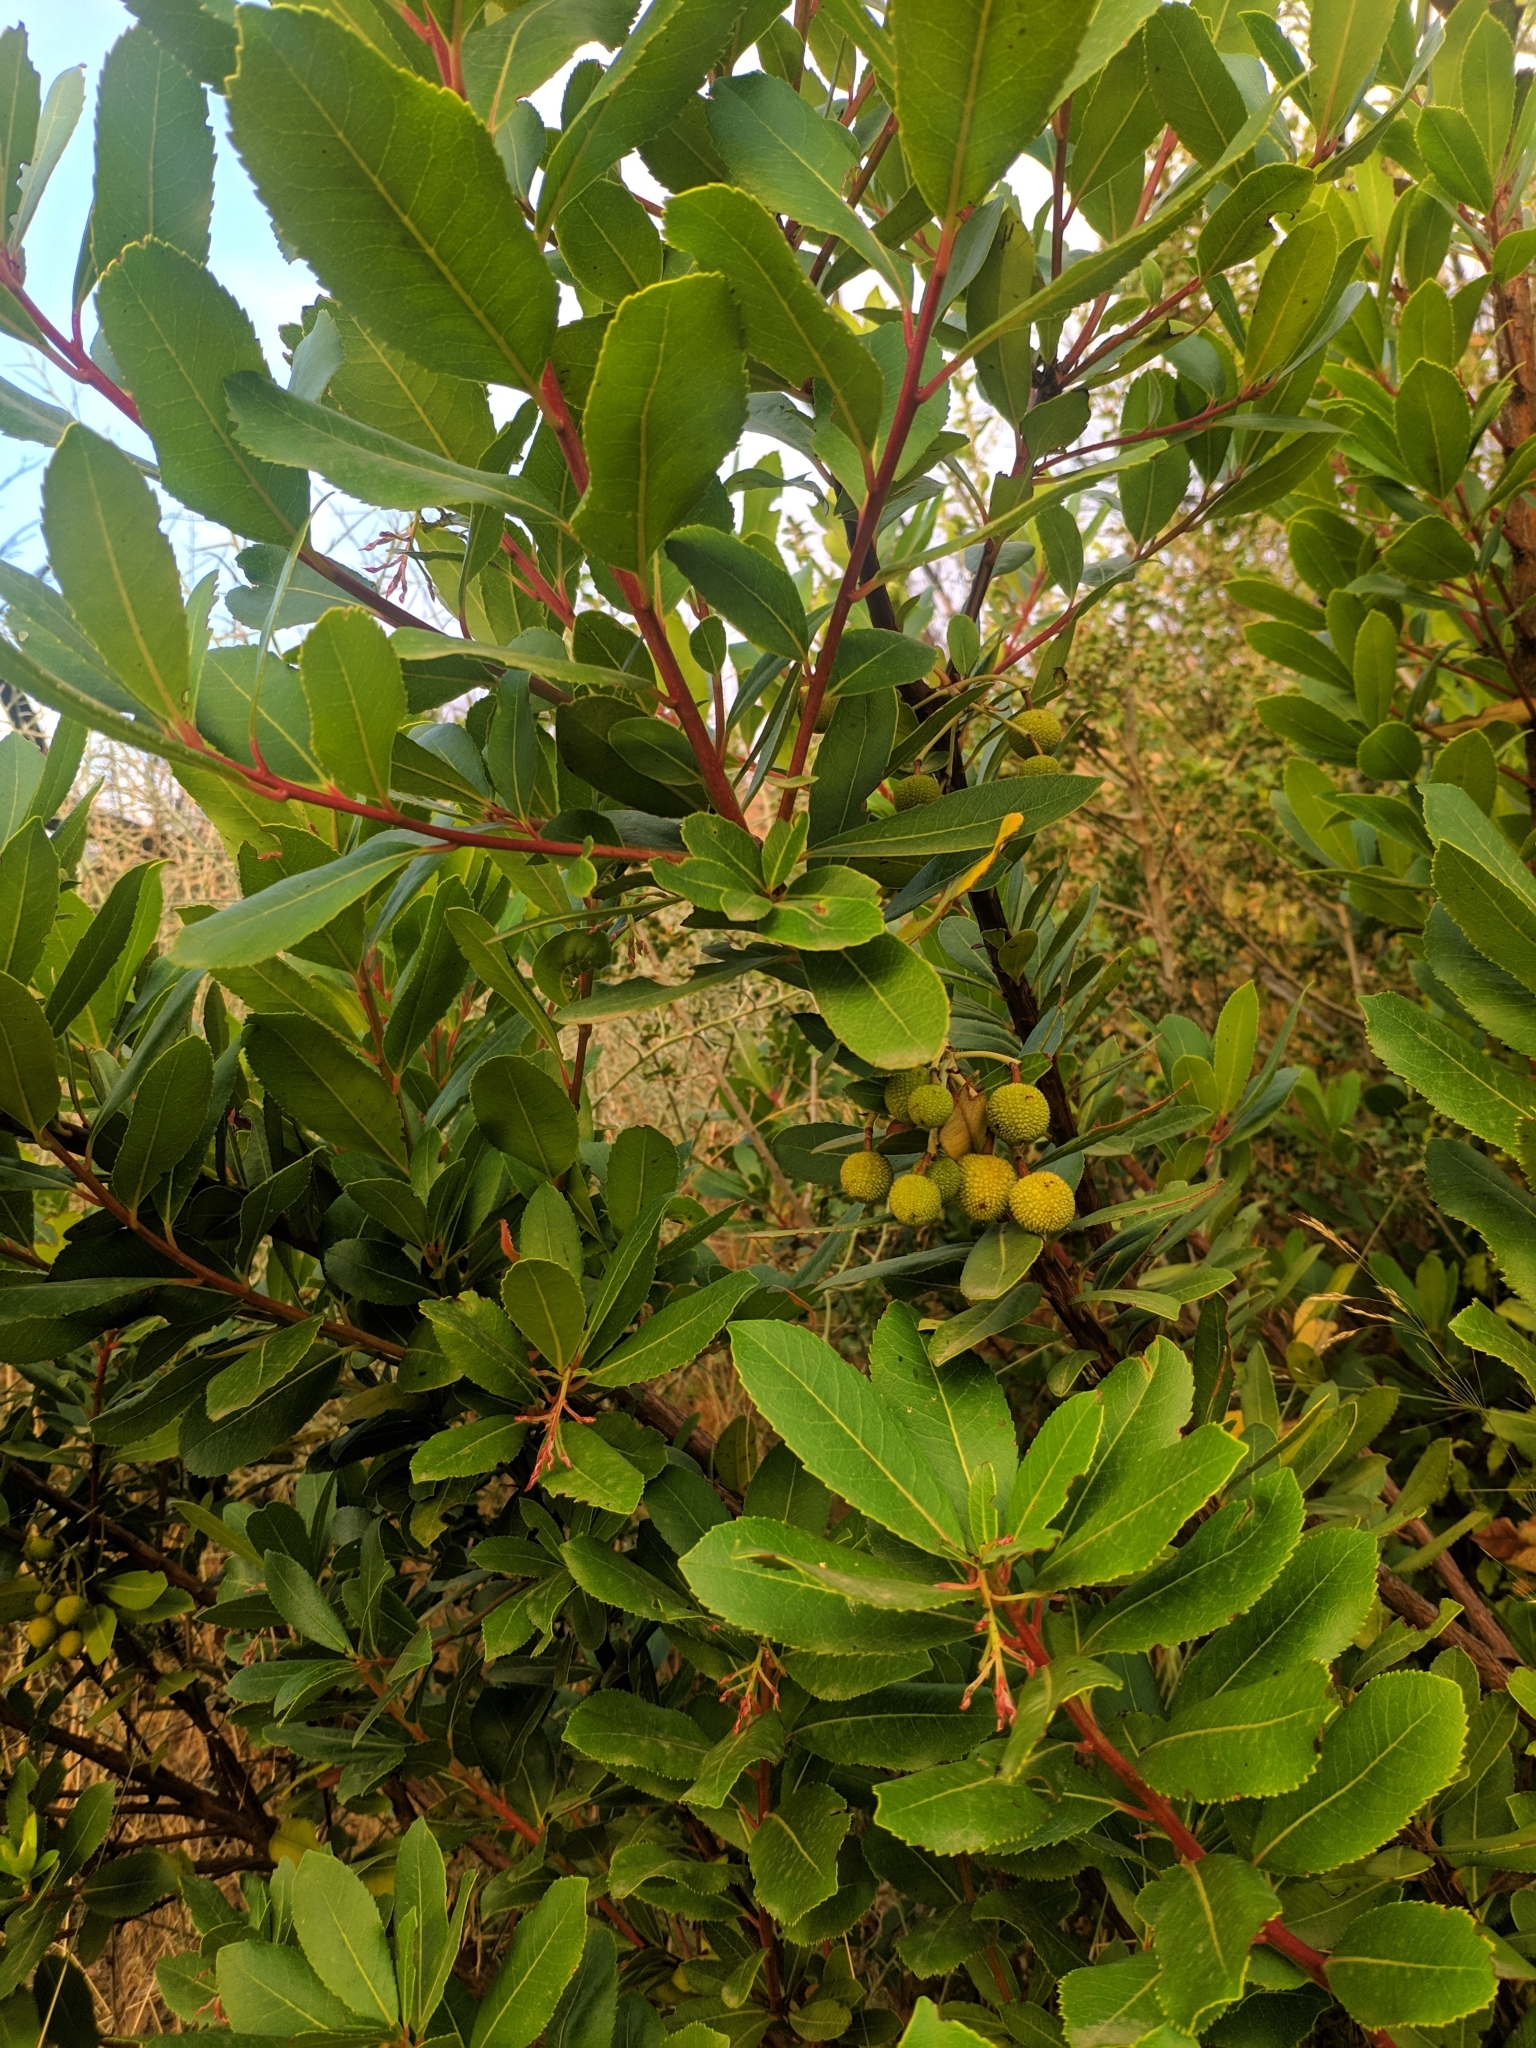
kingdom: Plantae
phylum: Tracheophyta
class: Magnoliopsida
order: Ericales
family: Ericaceae
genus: Arbutus
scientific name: Arbutus unedo
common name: Strawberry-tree
